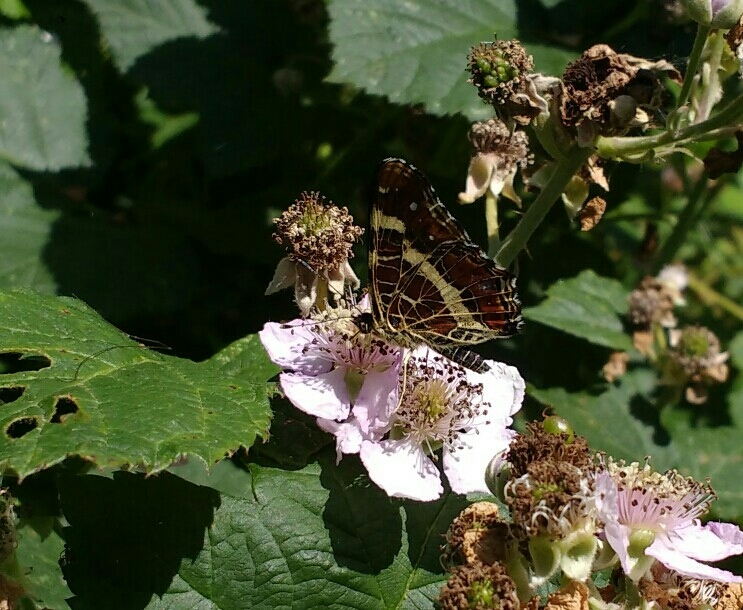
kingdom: Animalia
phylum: Arthropoda
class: Insecta
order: Lepidoptera
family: Nymphalidae
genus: Araschnia
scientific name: Araschnia levana
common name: Map butterfly
